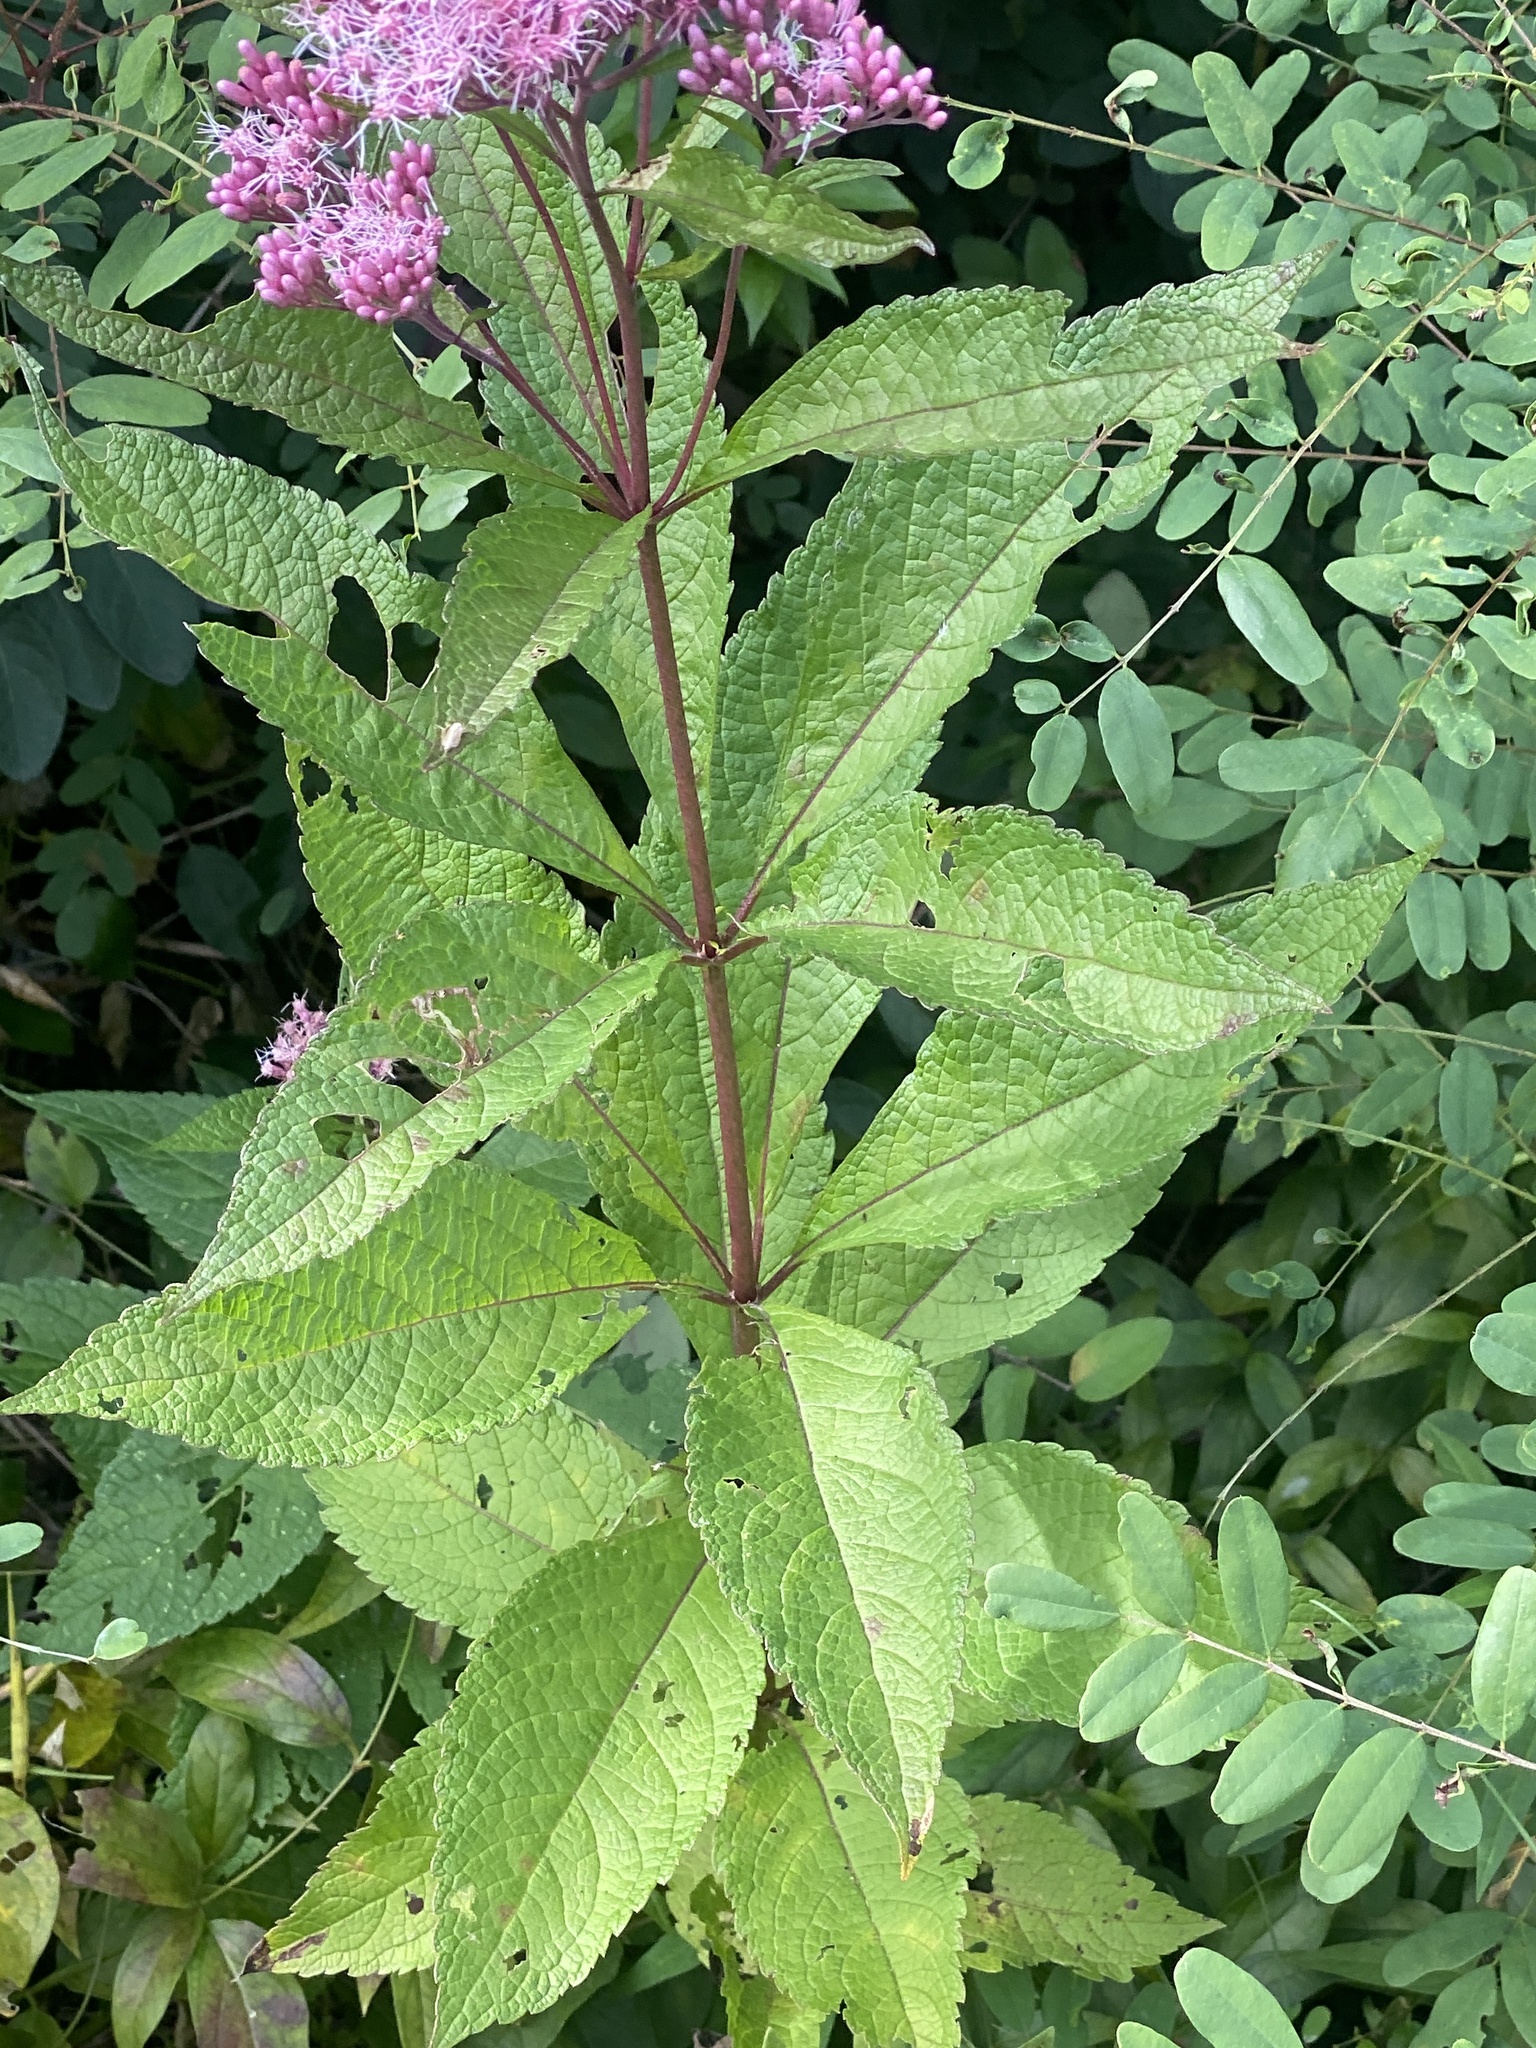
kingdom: Plantae
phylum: Tracheophyta
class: Magnoliopsida
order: Asterales
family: Asteraceae
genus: Eutrochium
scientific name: Eutrochium maculatum
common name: Spotted joe pye weed
